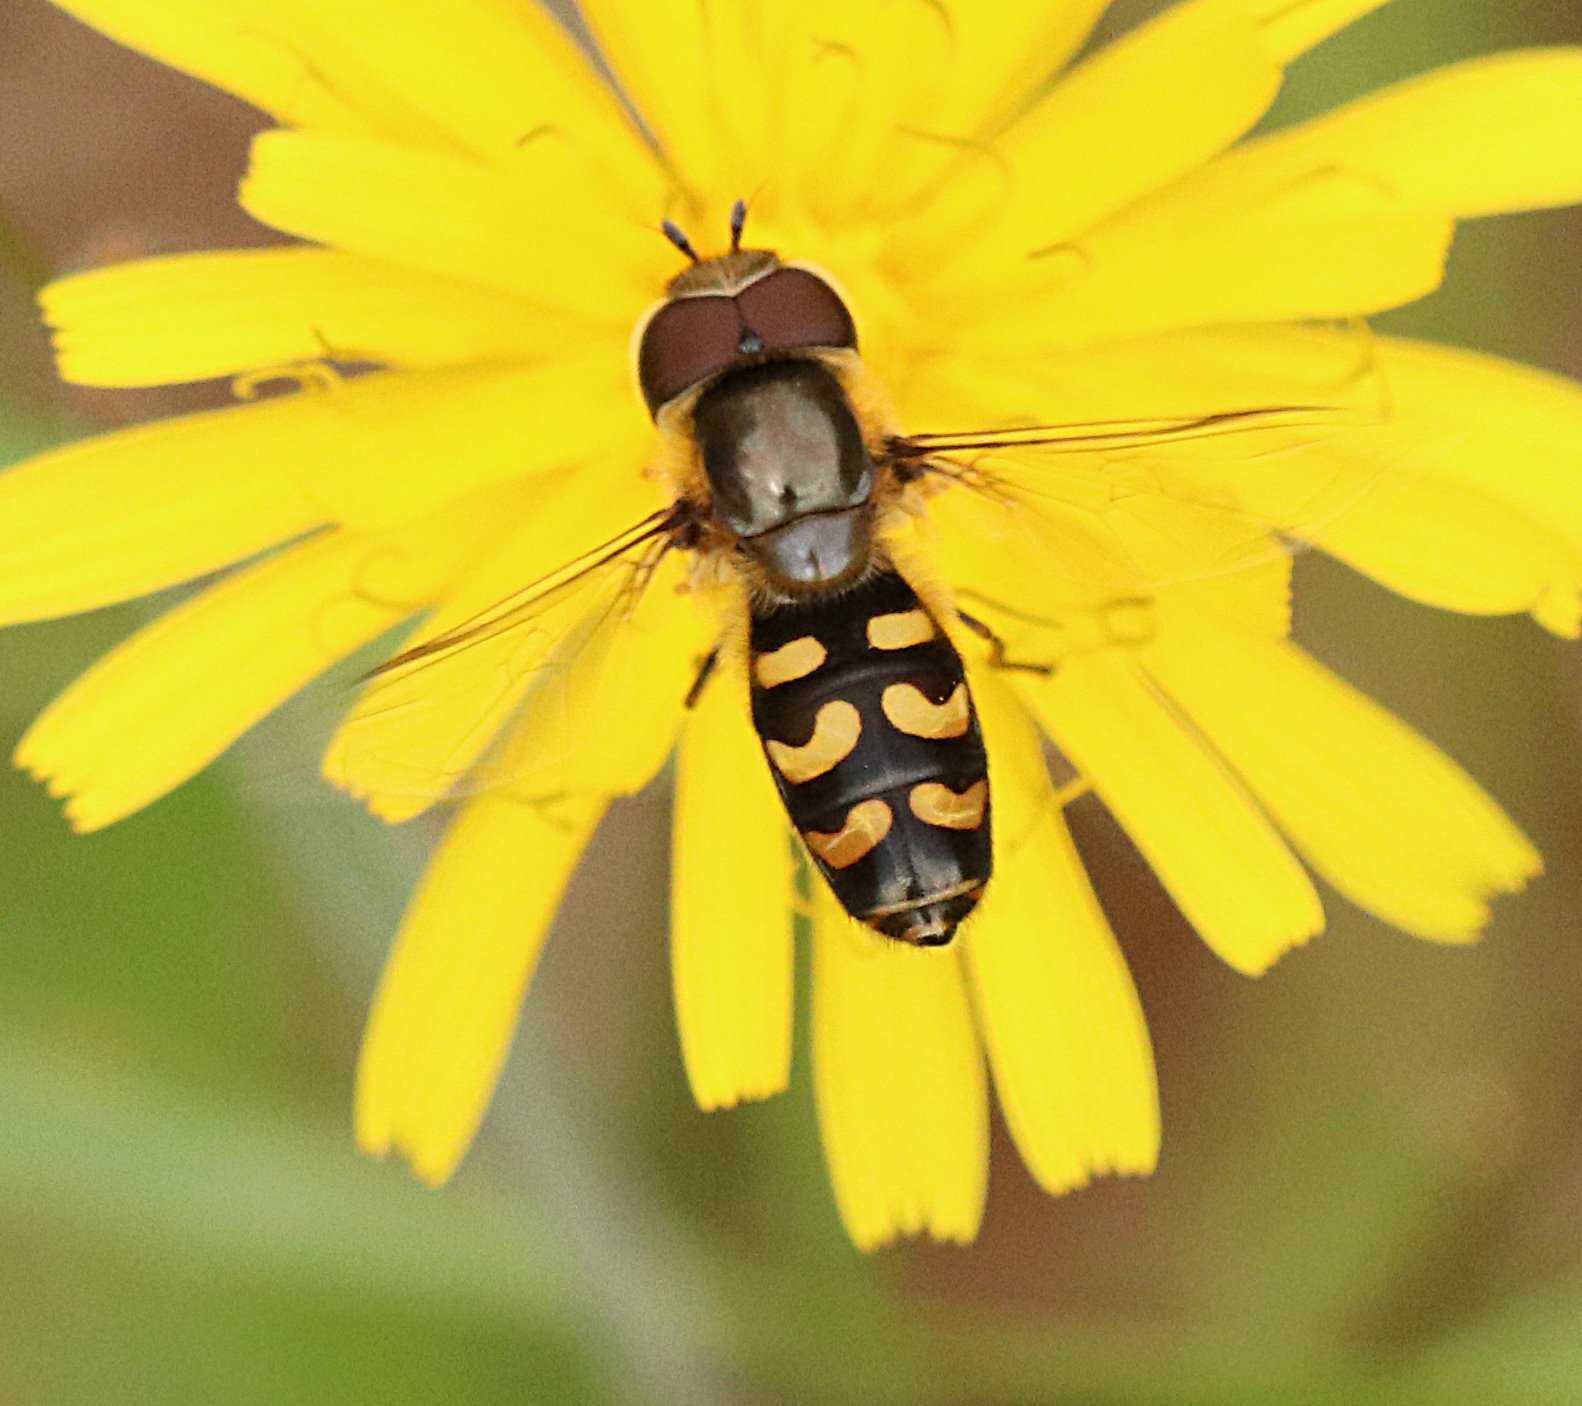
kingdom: Animalia
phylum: Arthropoda
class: Insecta
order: Diptera
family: Syrphidae
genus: Scaeva
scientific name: Scaeva selenitica
